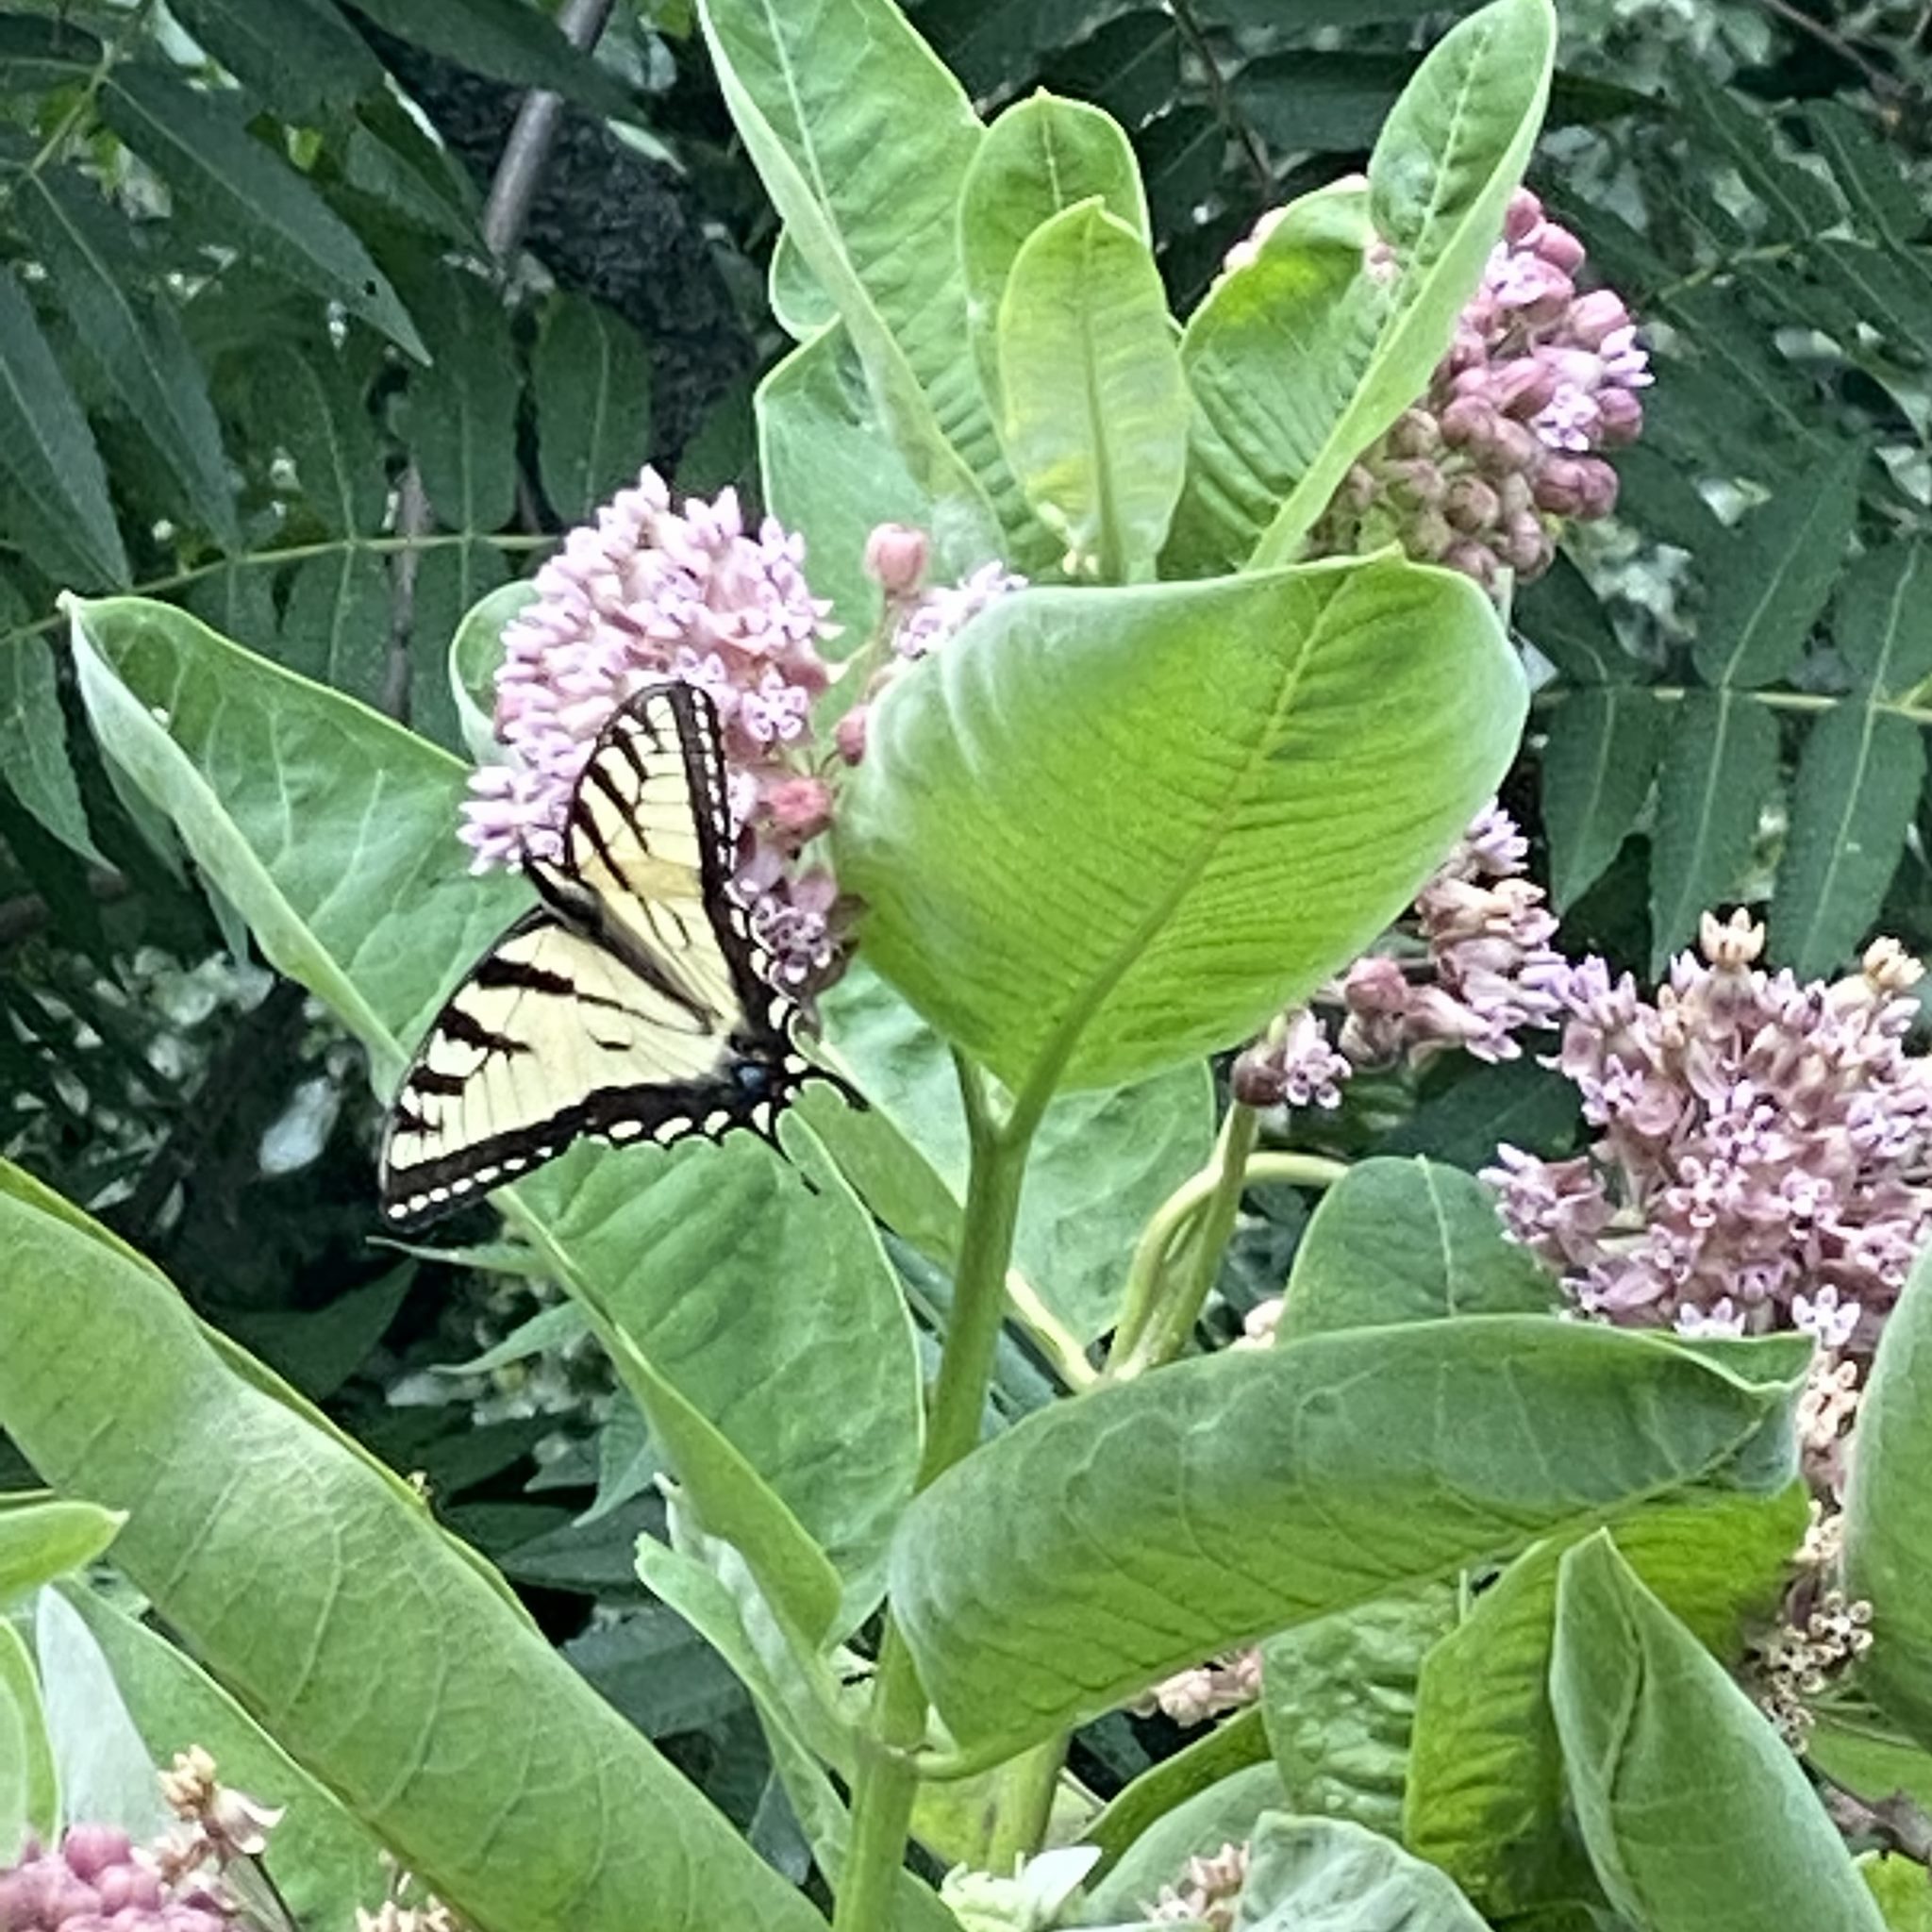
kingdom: Animalia
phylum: Arthropoda
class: Insecta
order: Lepidoptera
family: Papilionidae
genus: Papilio
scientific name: Papilio
